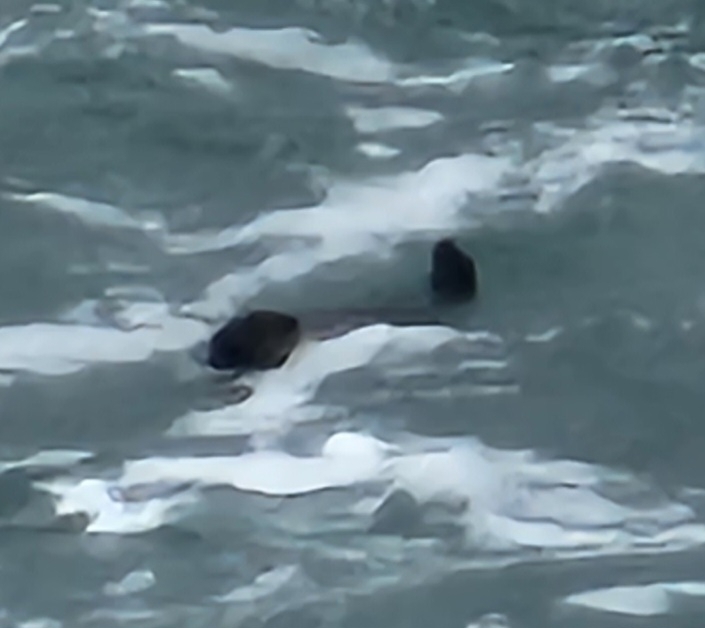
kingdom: Animalia
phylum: Chordata
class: Mammalia
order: Carnivora
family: Mustelidae
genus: Enhydra
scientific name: Enhydra lutris
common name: Sea otter
